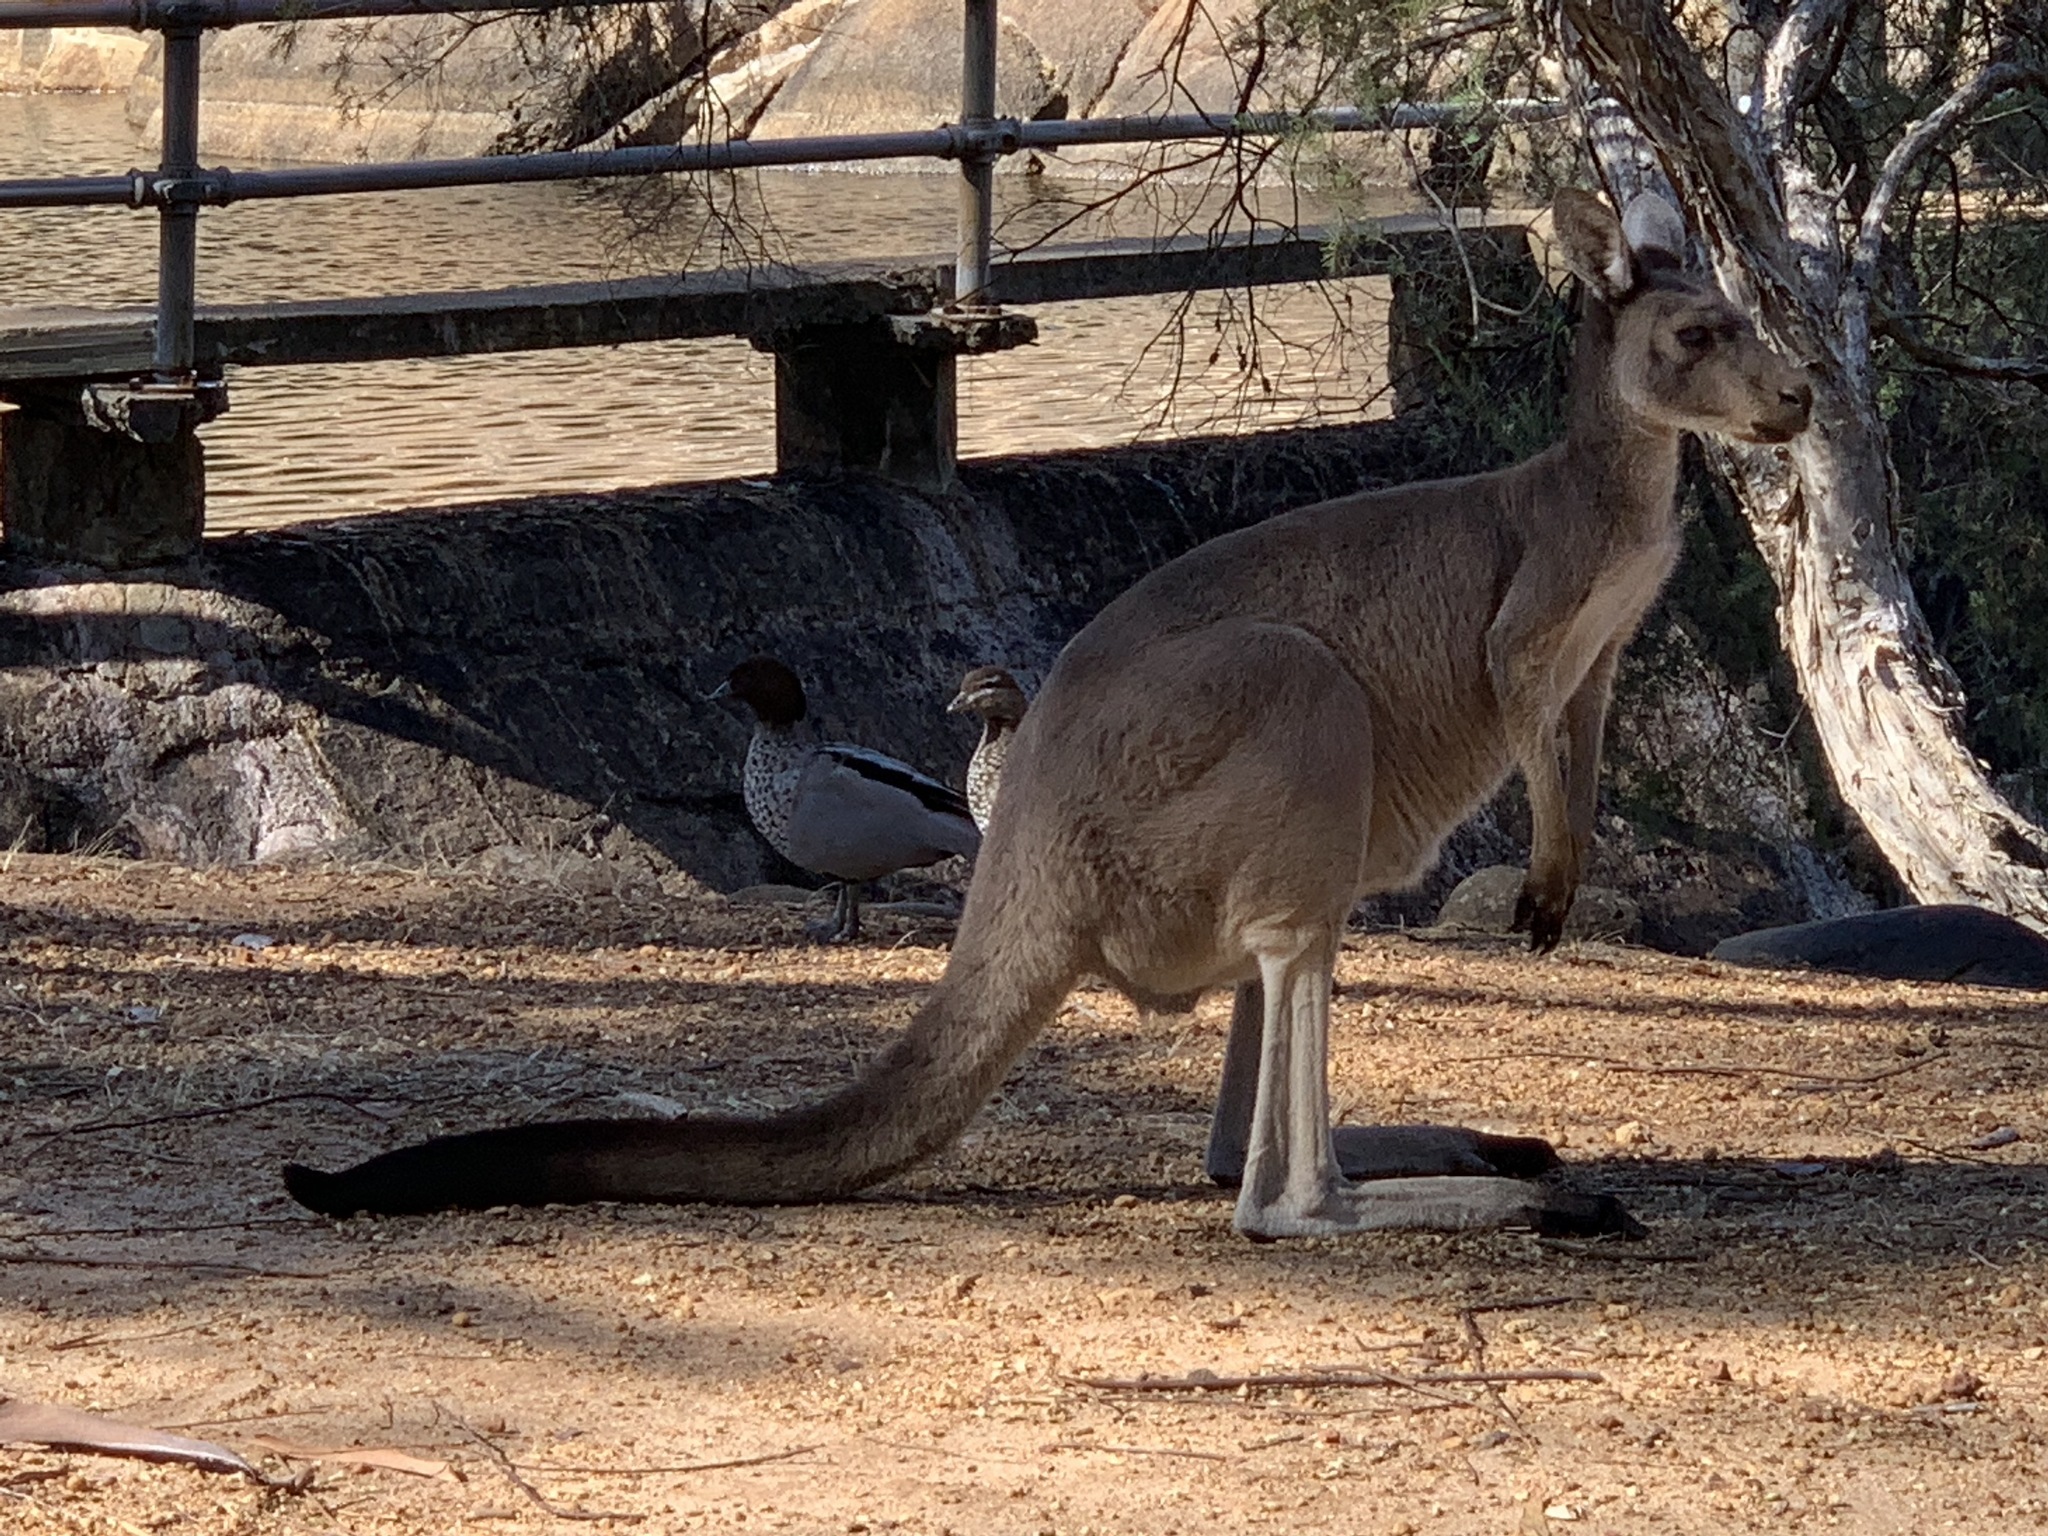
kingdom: Animalia
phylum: Chordata
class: Mammalia
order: Diprotodontia
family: Macropodidae
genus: Macropus
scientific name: Macropus fuliginosus
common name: Western grey kangaroo
